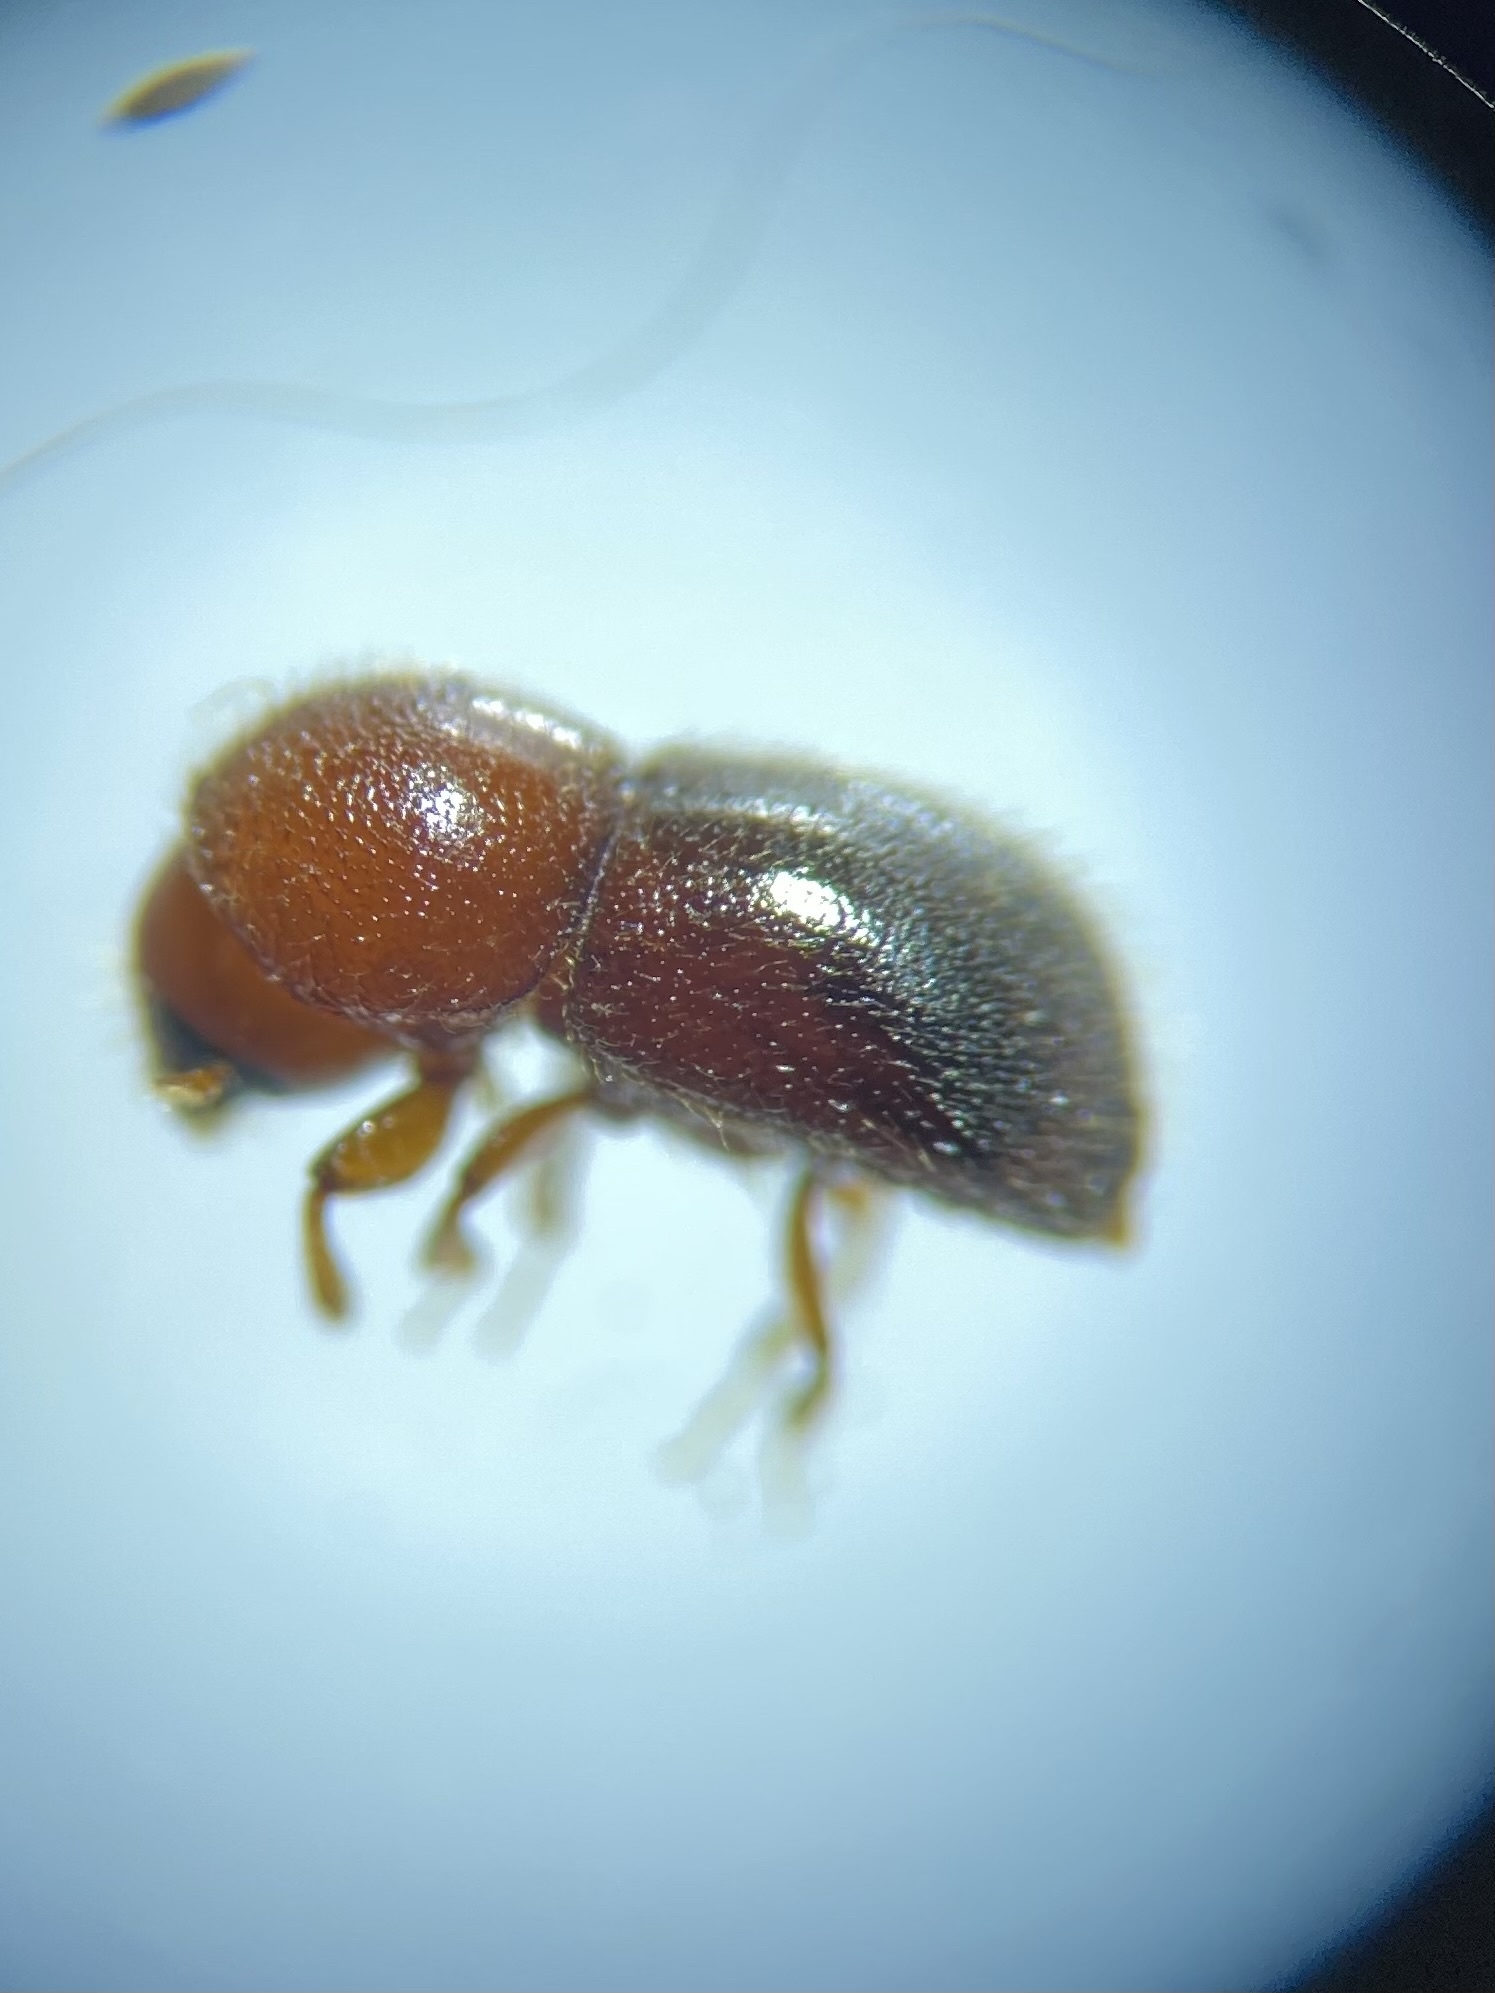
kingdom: Animalia
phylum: Arthropoda
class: Insecta
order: Coleoptera
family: Curculionidae
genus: Xylosandrus
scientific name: Xylosandrus crassiusculus
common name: Granulate ambrosia beetle
